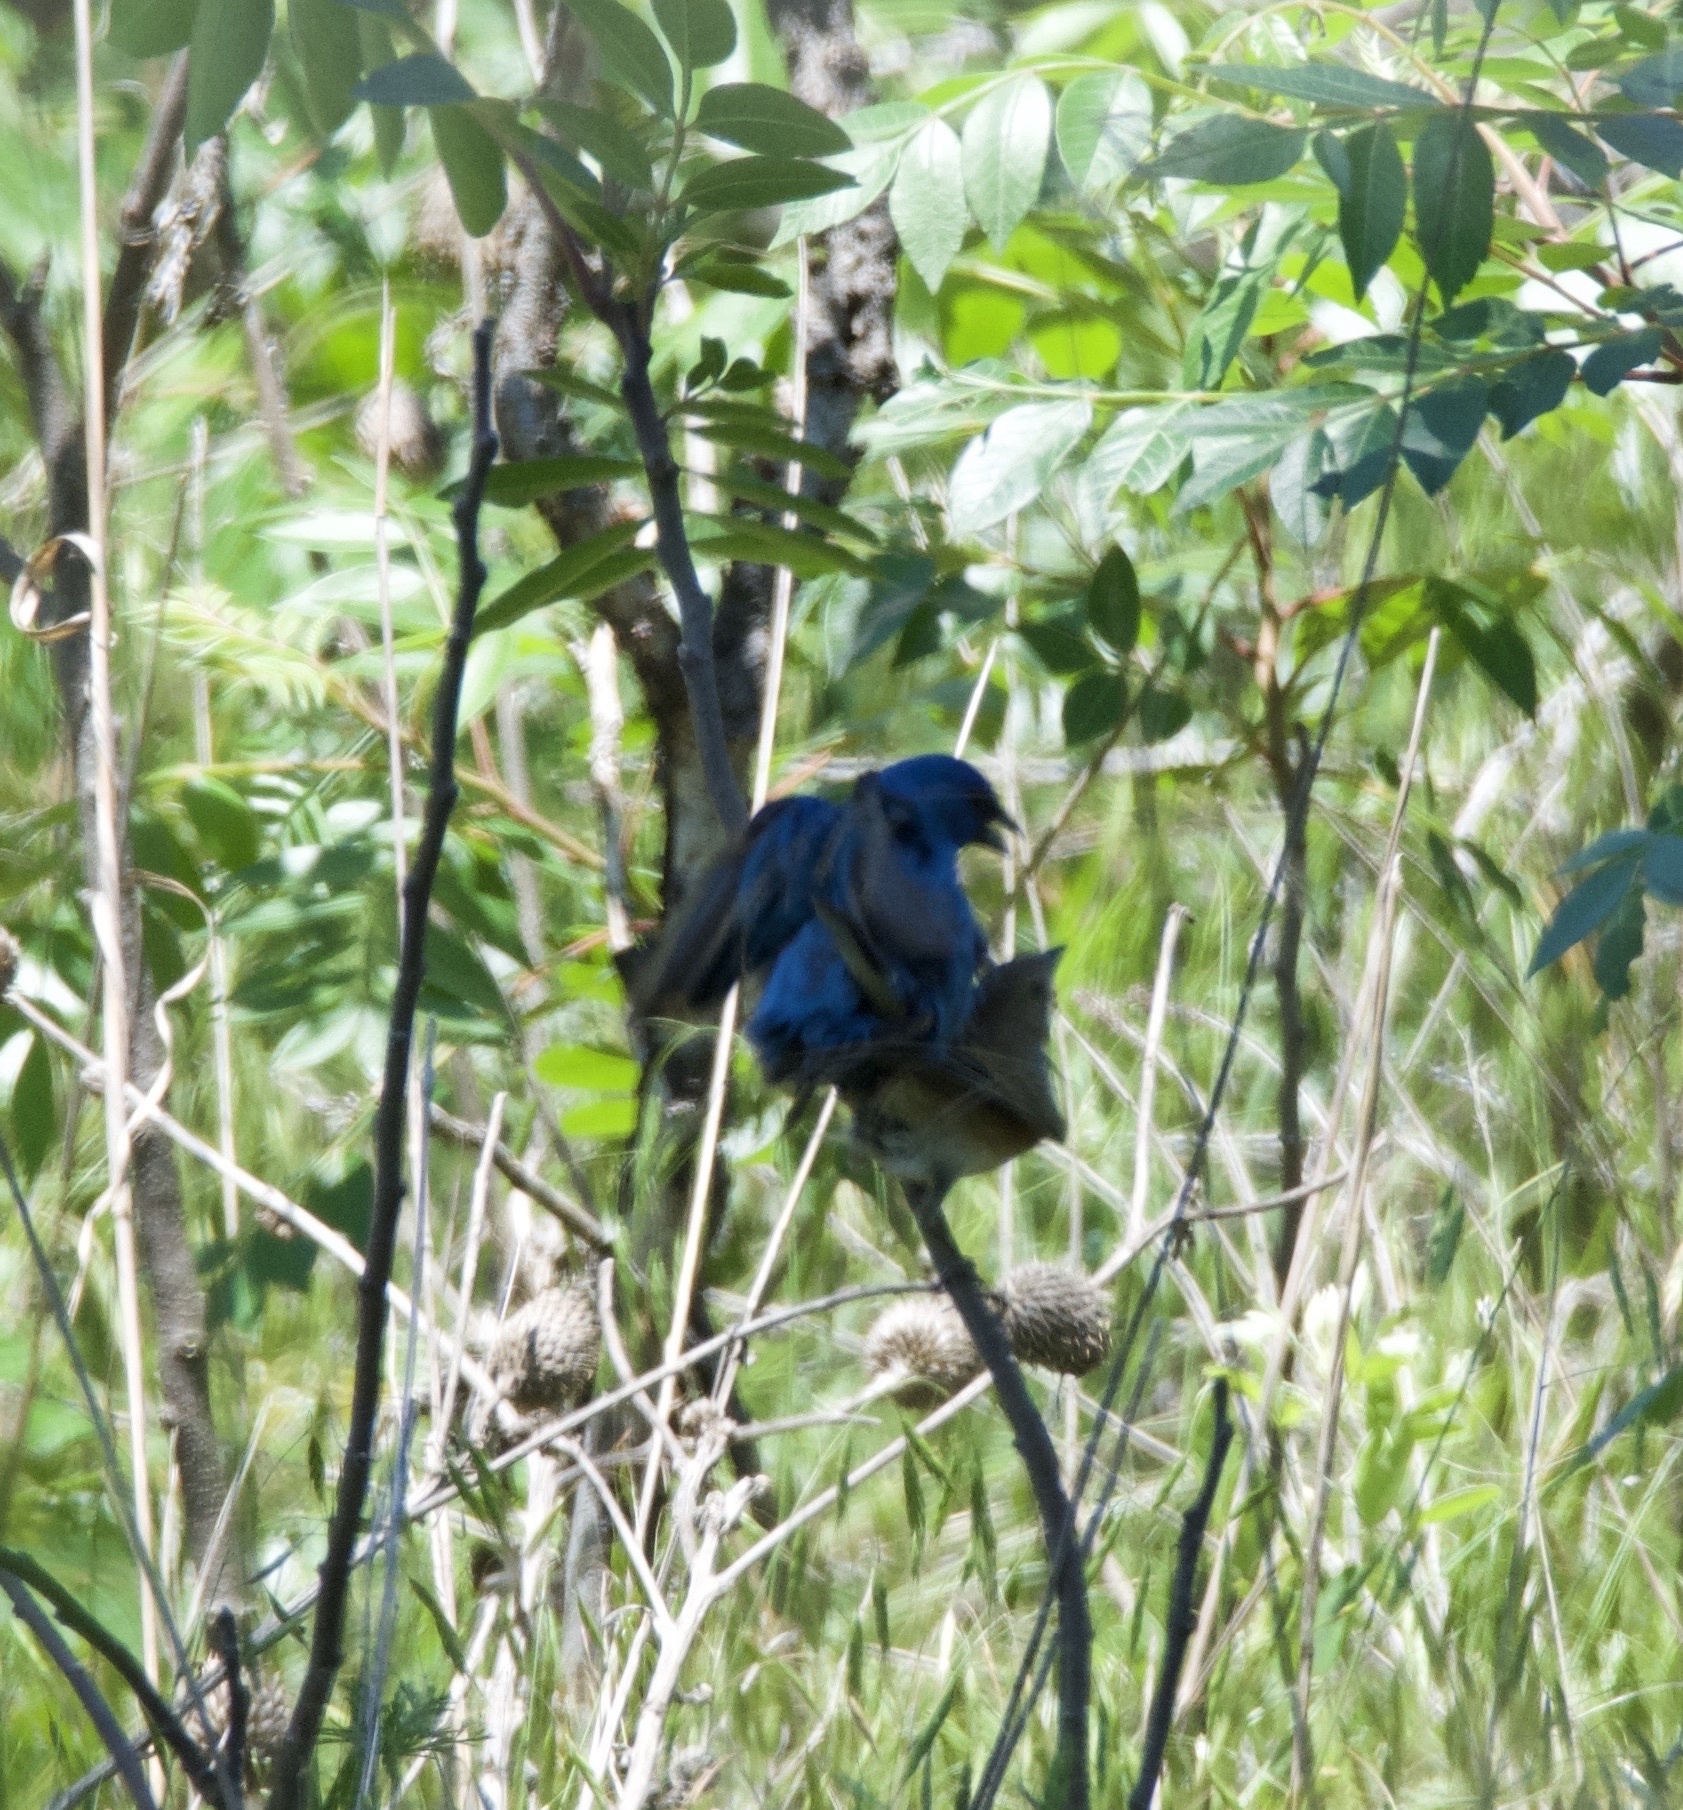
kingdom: Animalia
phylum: Chordata
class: Aves
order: Passeriformes
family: Cardinalidae
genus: Passerina
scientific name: Passerina cyanea
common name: Indigo bunting
